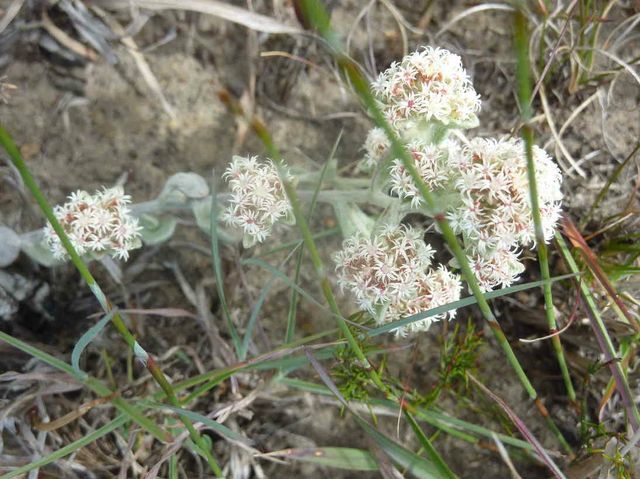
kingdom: Plantae
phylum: Tracheophyta
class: Magnoliopsida
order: Asterales
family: Asteraceae
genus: Helichrysum
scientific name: Helichrysum spiralepis
